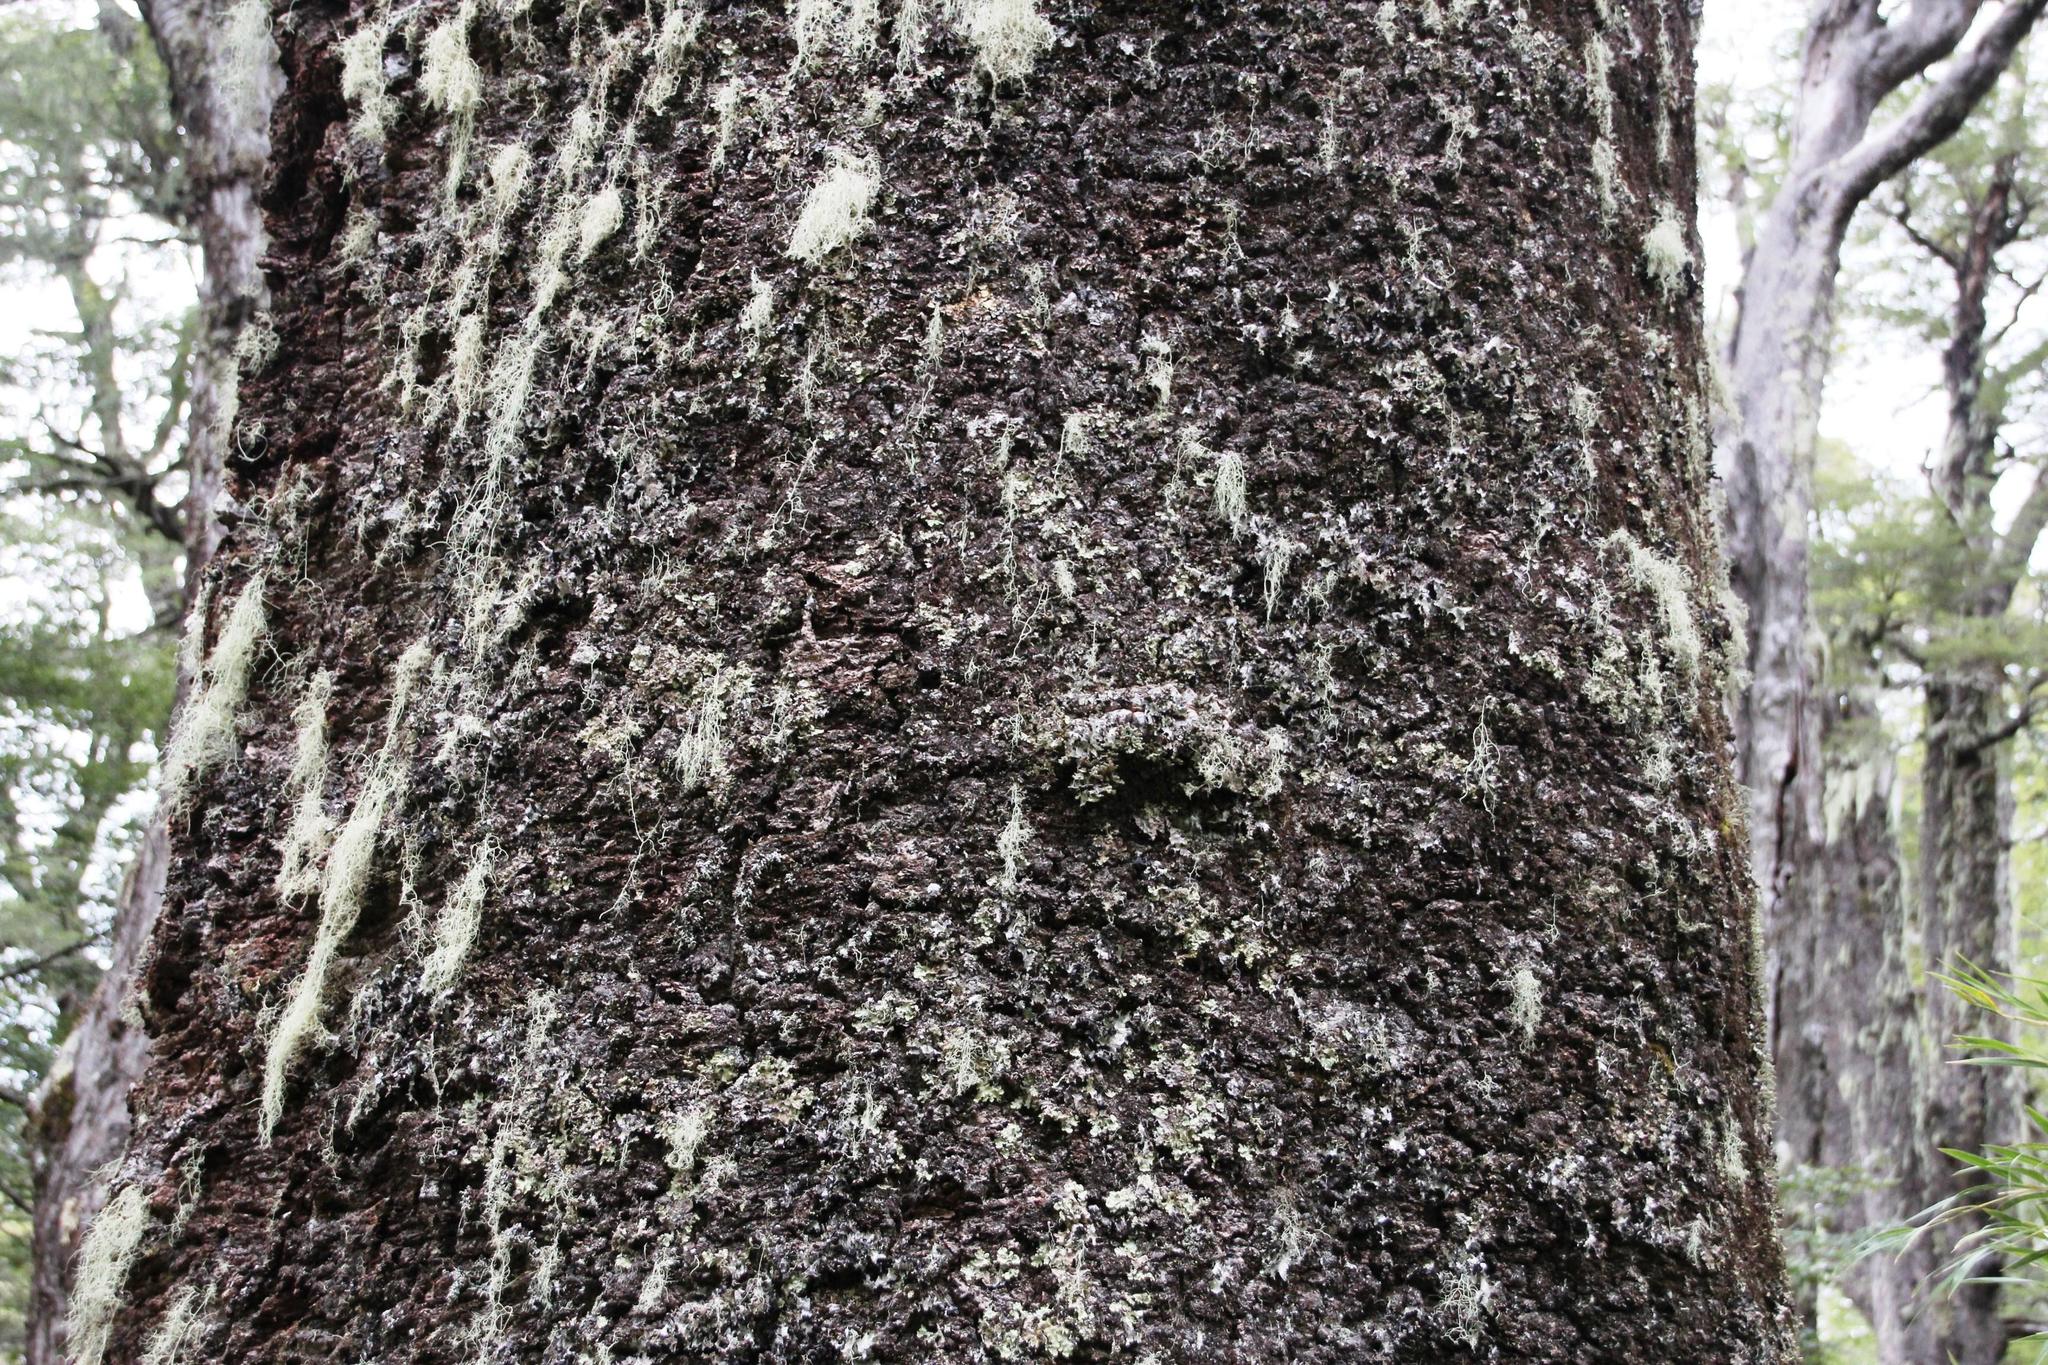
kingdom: Plantae
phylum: Tracheophyta
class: Pinopsida
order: Pinales
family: Araucariaceae
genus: Araucaria
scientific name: Araucaria araucana
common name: Monkey-puzzle
